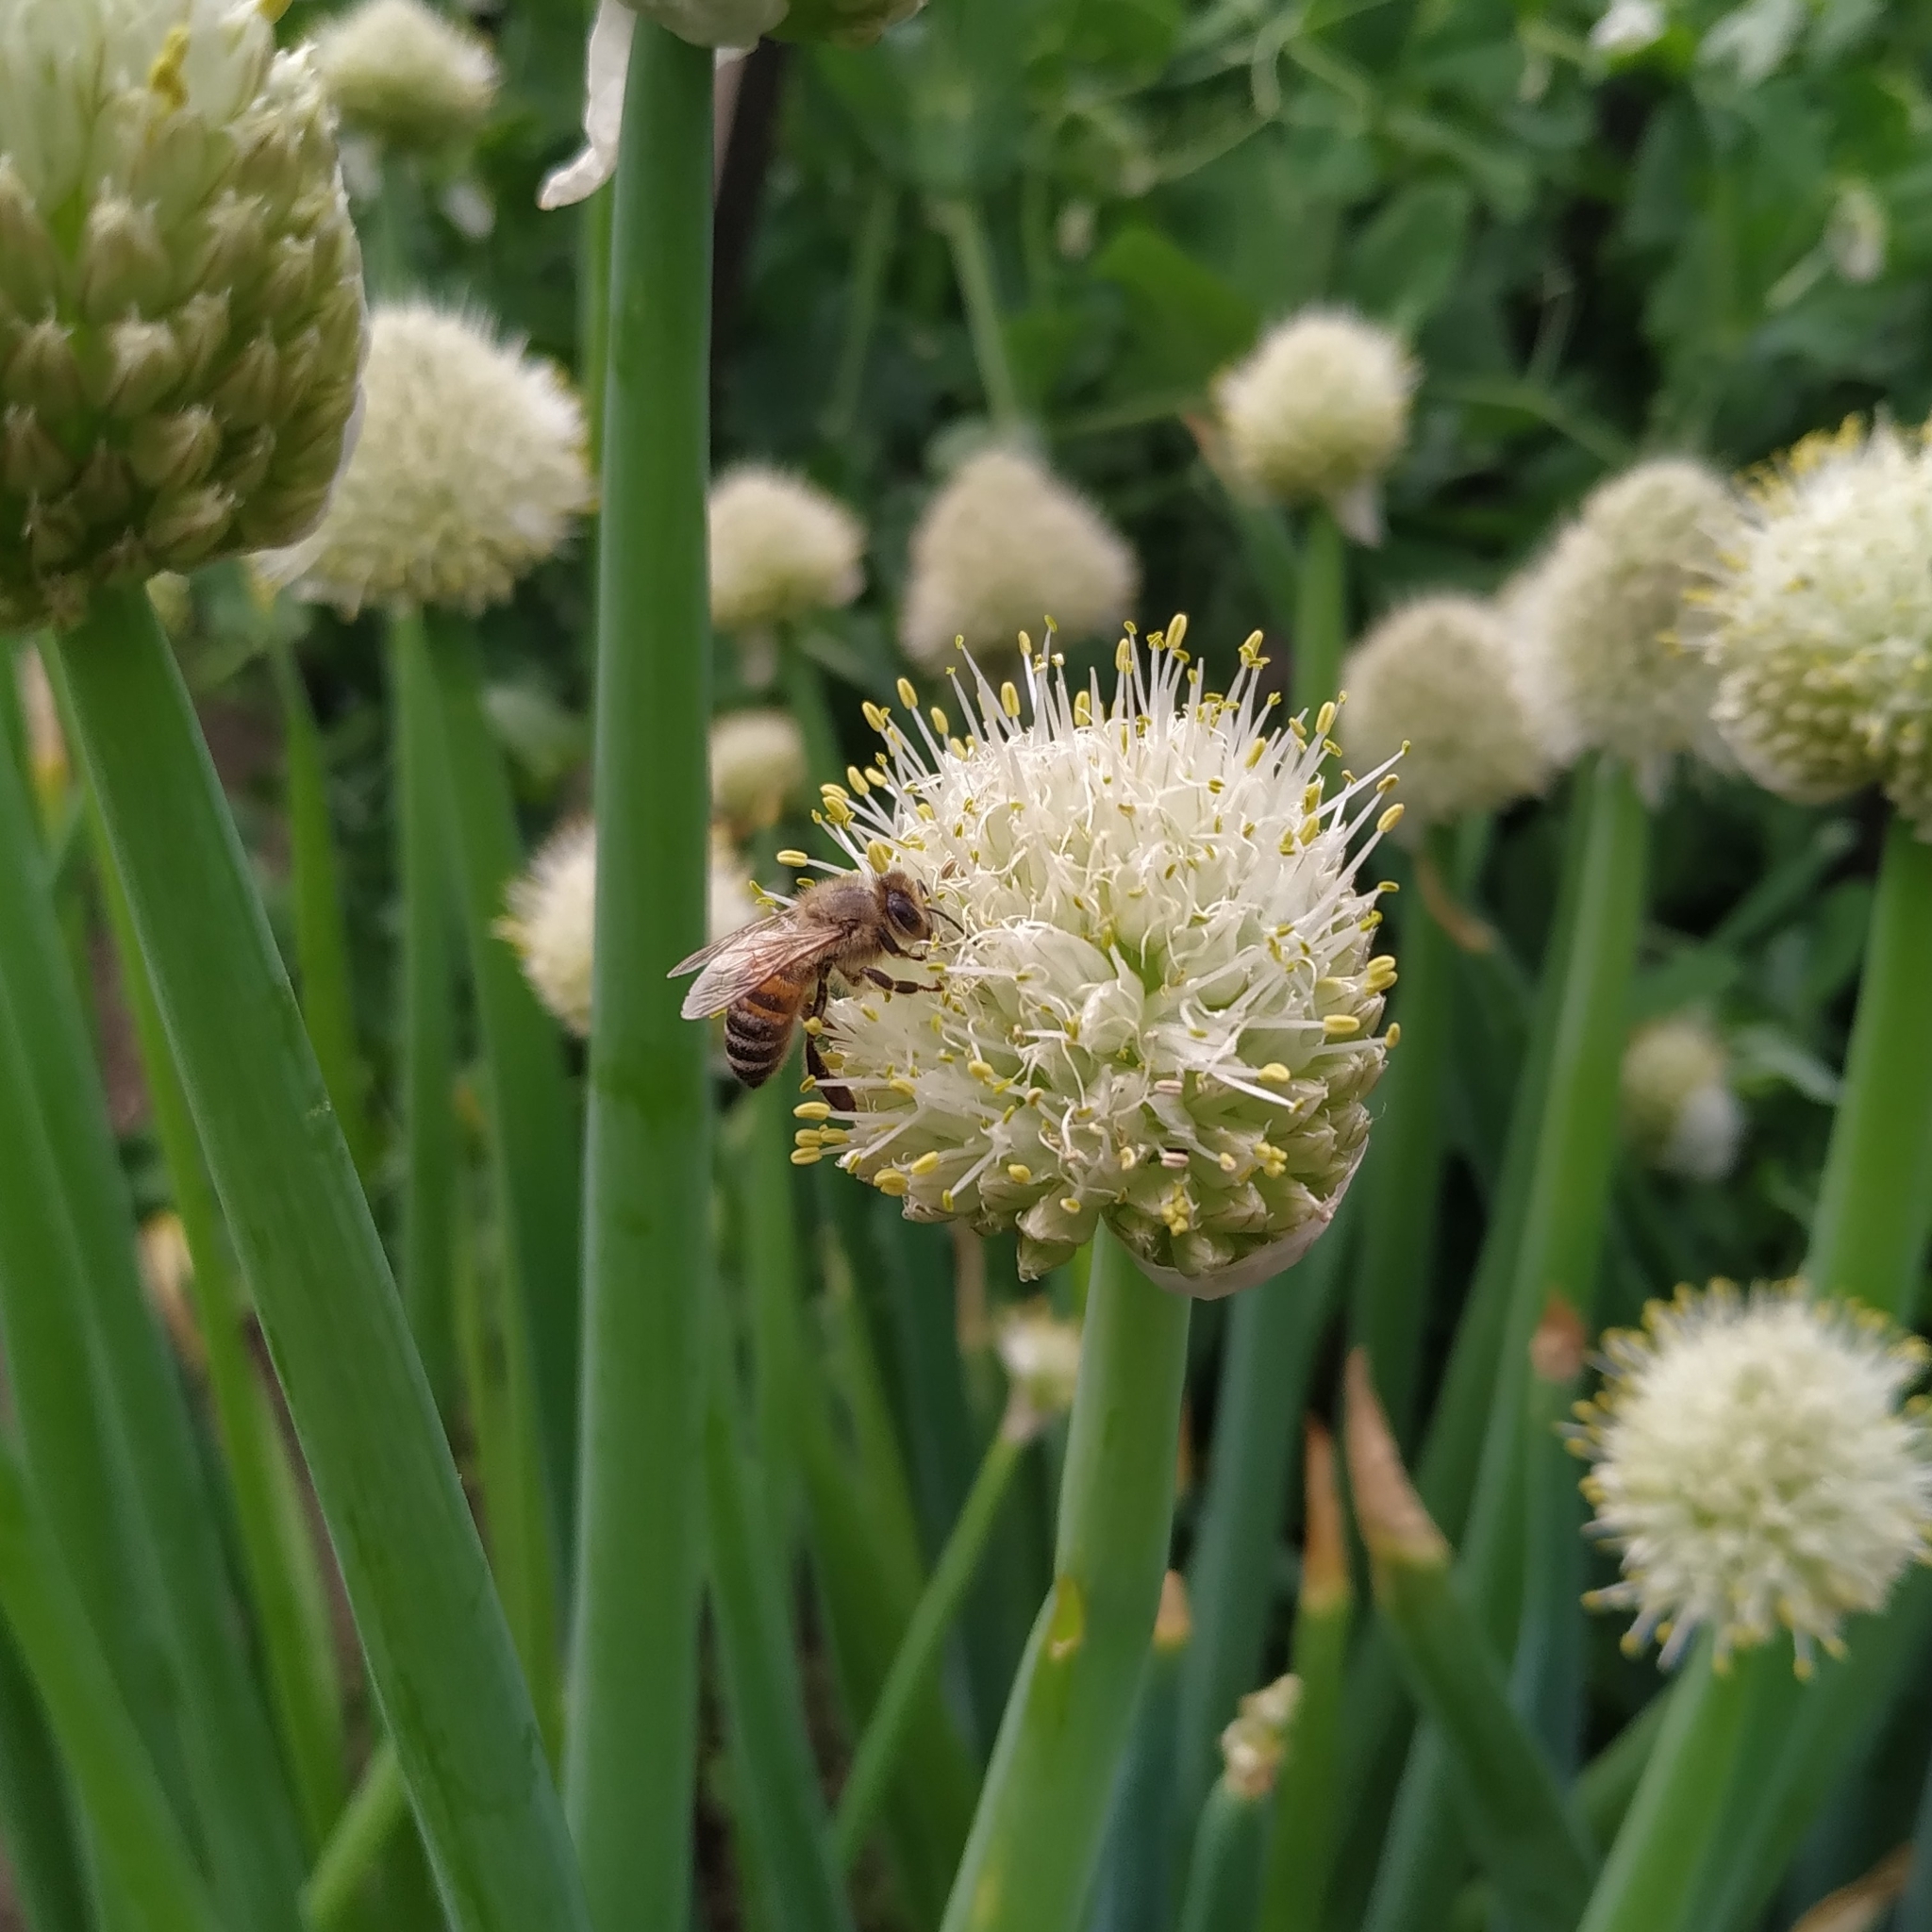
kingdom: Animalia
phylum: Arthropoda
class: Insecta
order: Hymenoptera
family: Apidae
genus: Apis
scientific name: Apis mellifera
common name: Honey bee
